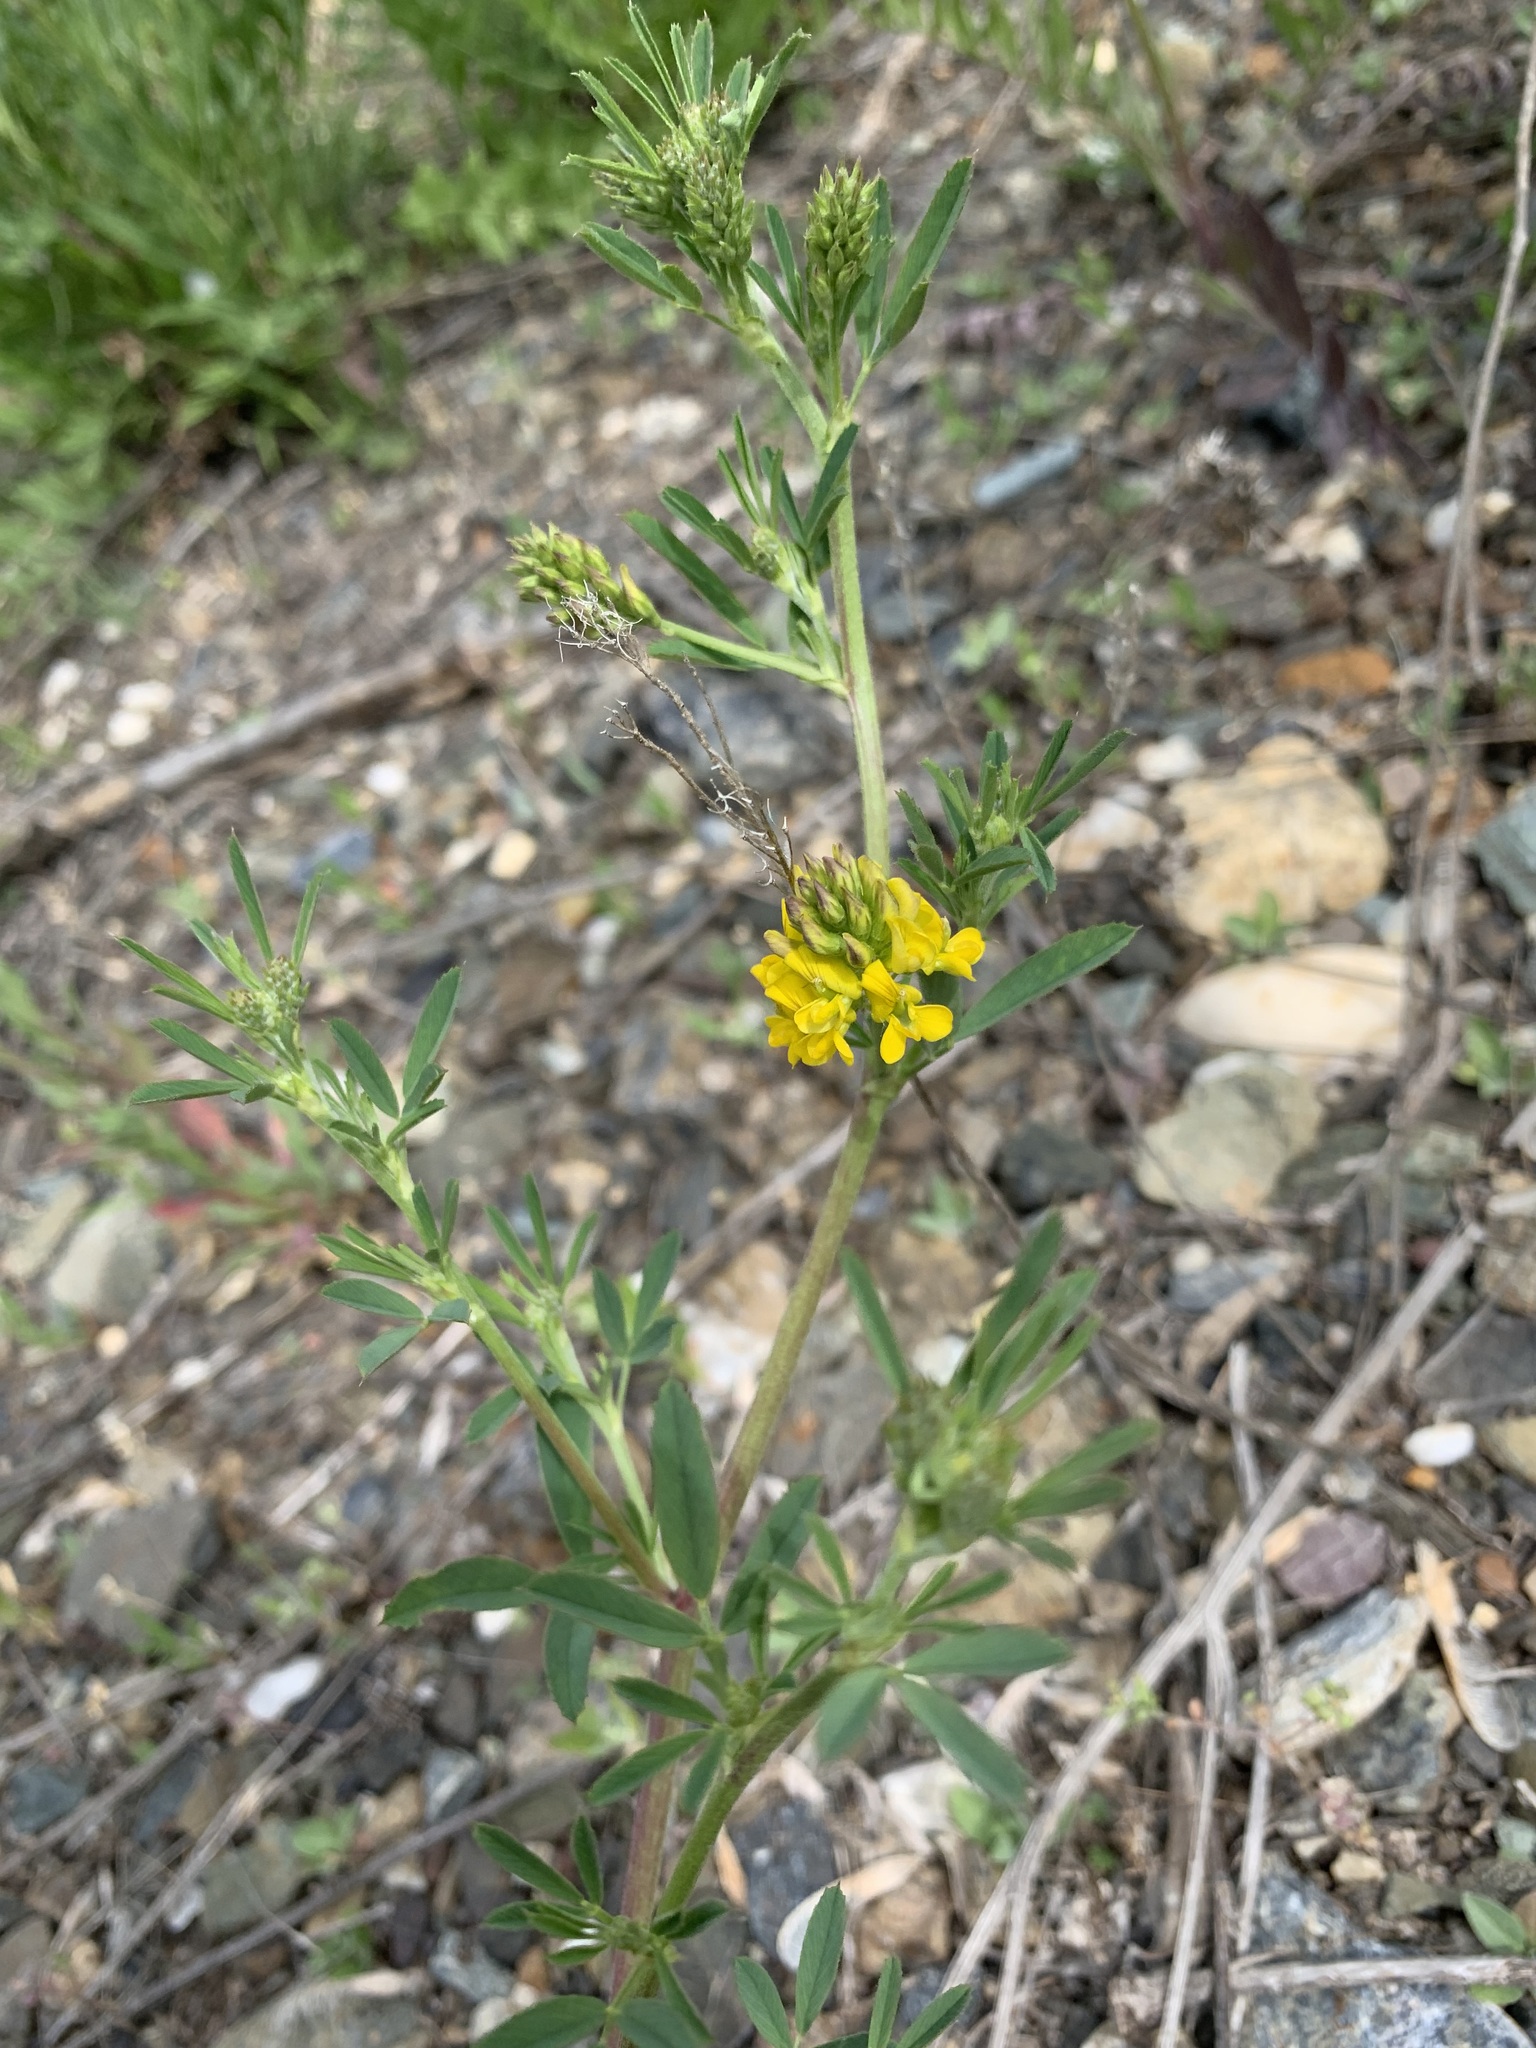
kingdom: Plantae
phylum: Tracheophyta
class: Magnoliopsida
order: Fabales
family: Fabaceae
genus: Medicago
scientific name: Medicago falcata
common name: Sickle medick
